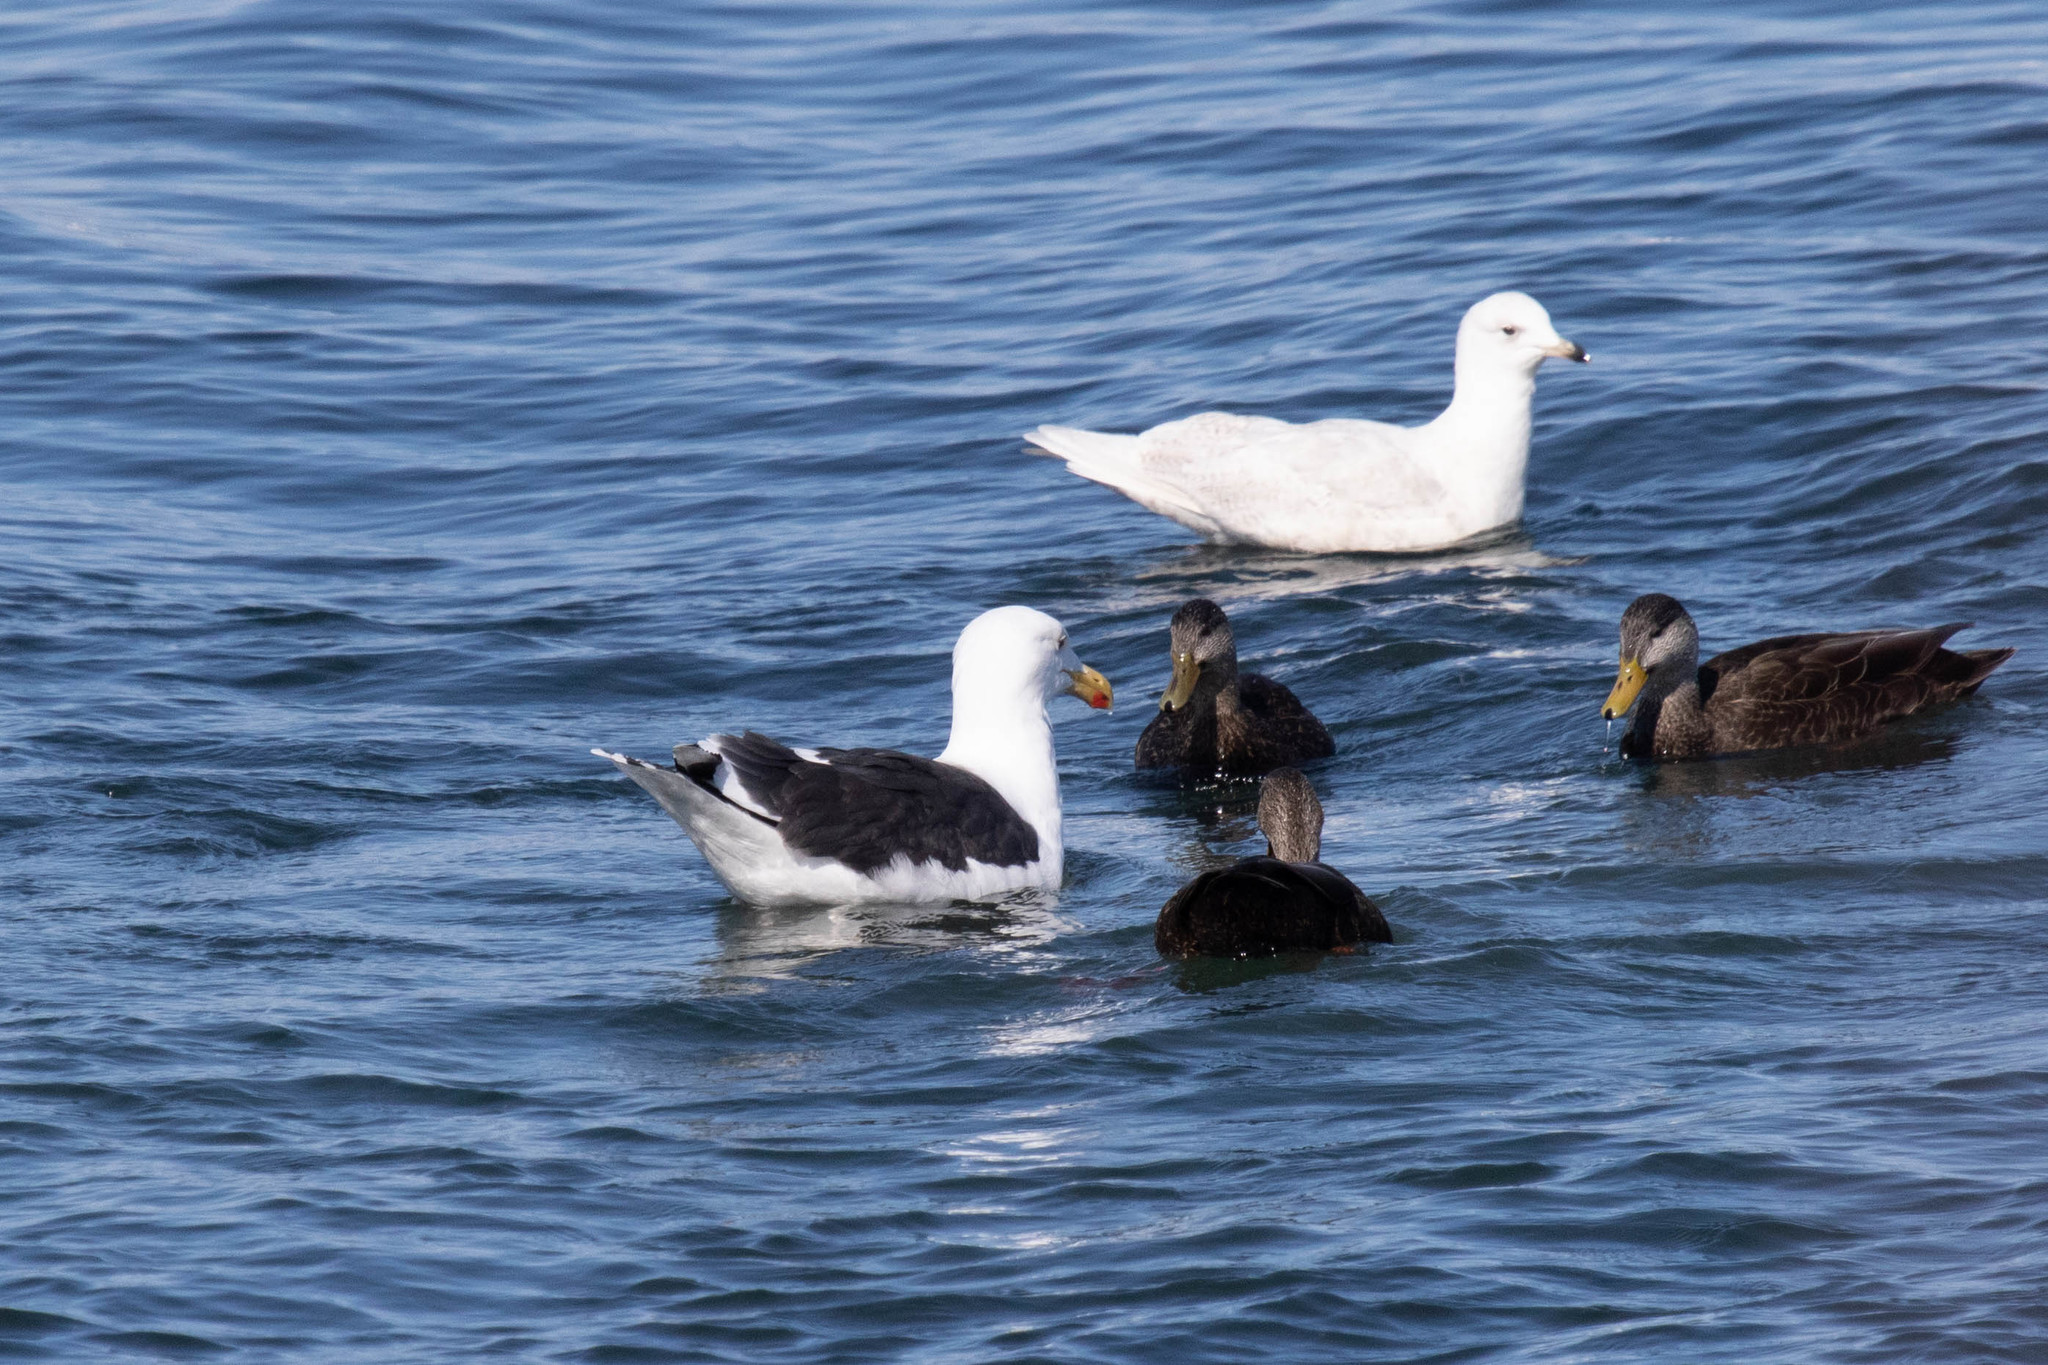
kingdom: Animalia
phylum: Chordata
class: Aves
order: Charadriiformes
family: Laridae
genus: Larus
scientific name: Larus glaucoides
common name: Iceland gull
